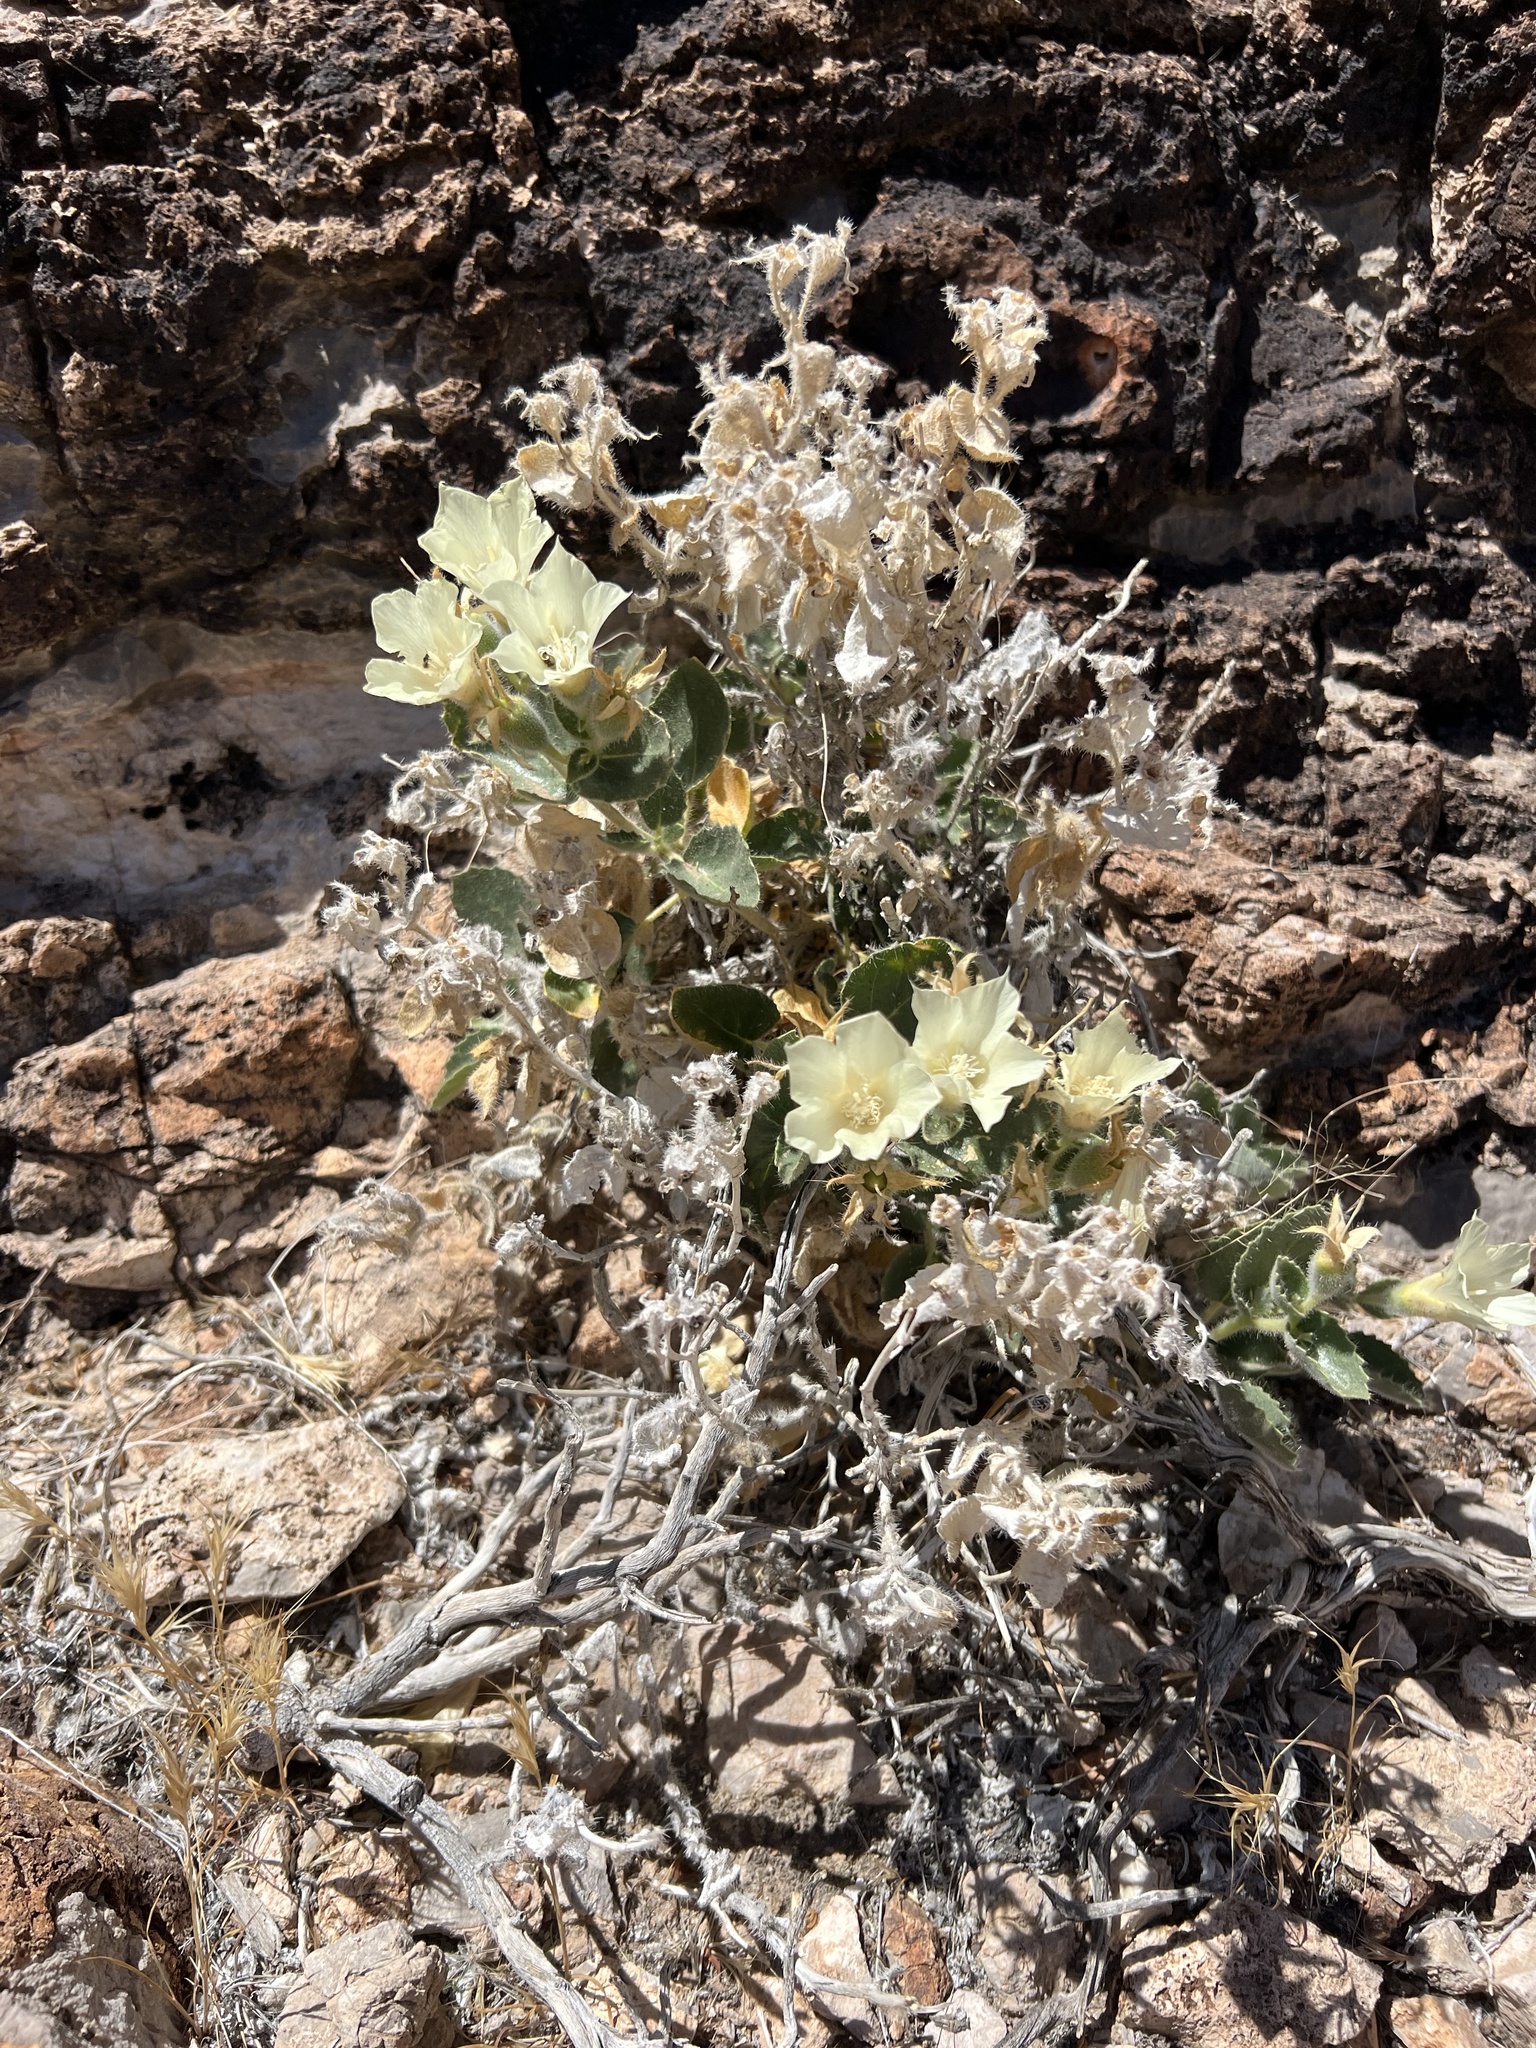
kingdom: Plantae
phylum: Tracheophyta
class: Magnoliopsida
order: Cornales
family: Loasaceae
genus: Eucnide
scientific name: Eucnide urens
